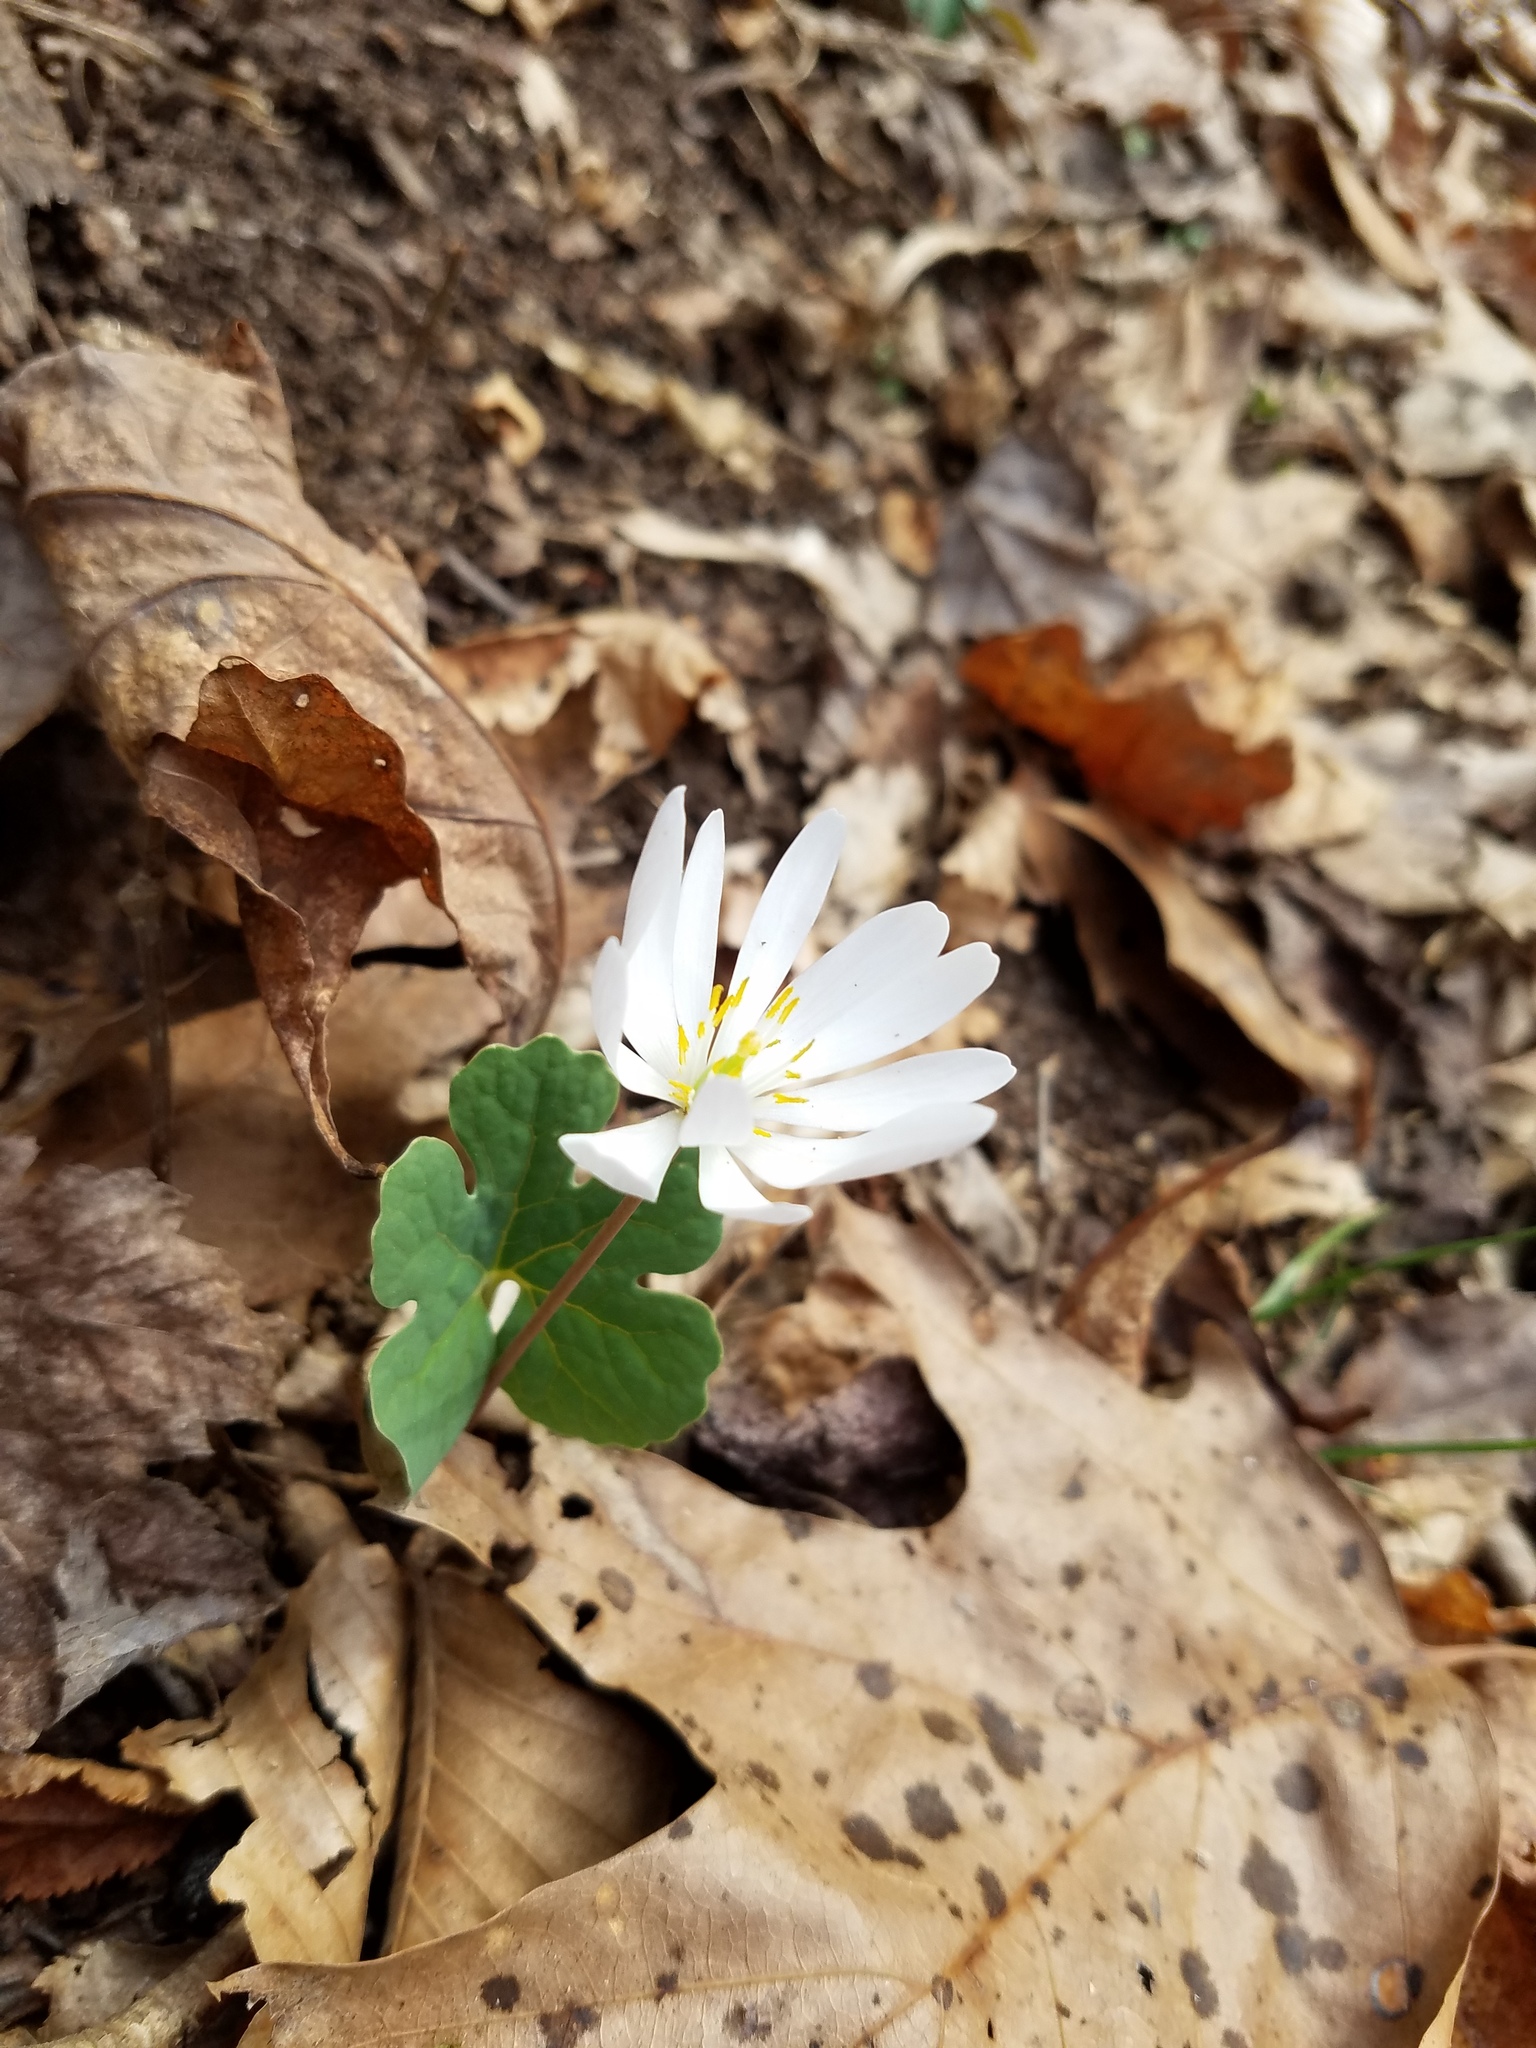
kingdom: Plantae
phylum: Tracheophyta
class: Magnoliopsida
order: Ranunculales
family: Papaveraceae
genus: Sanguinaria
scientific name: Sanguinaria canadensis
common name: Bloodroot
